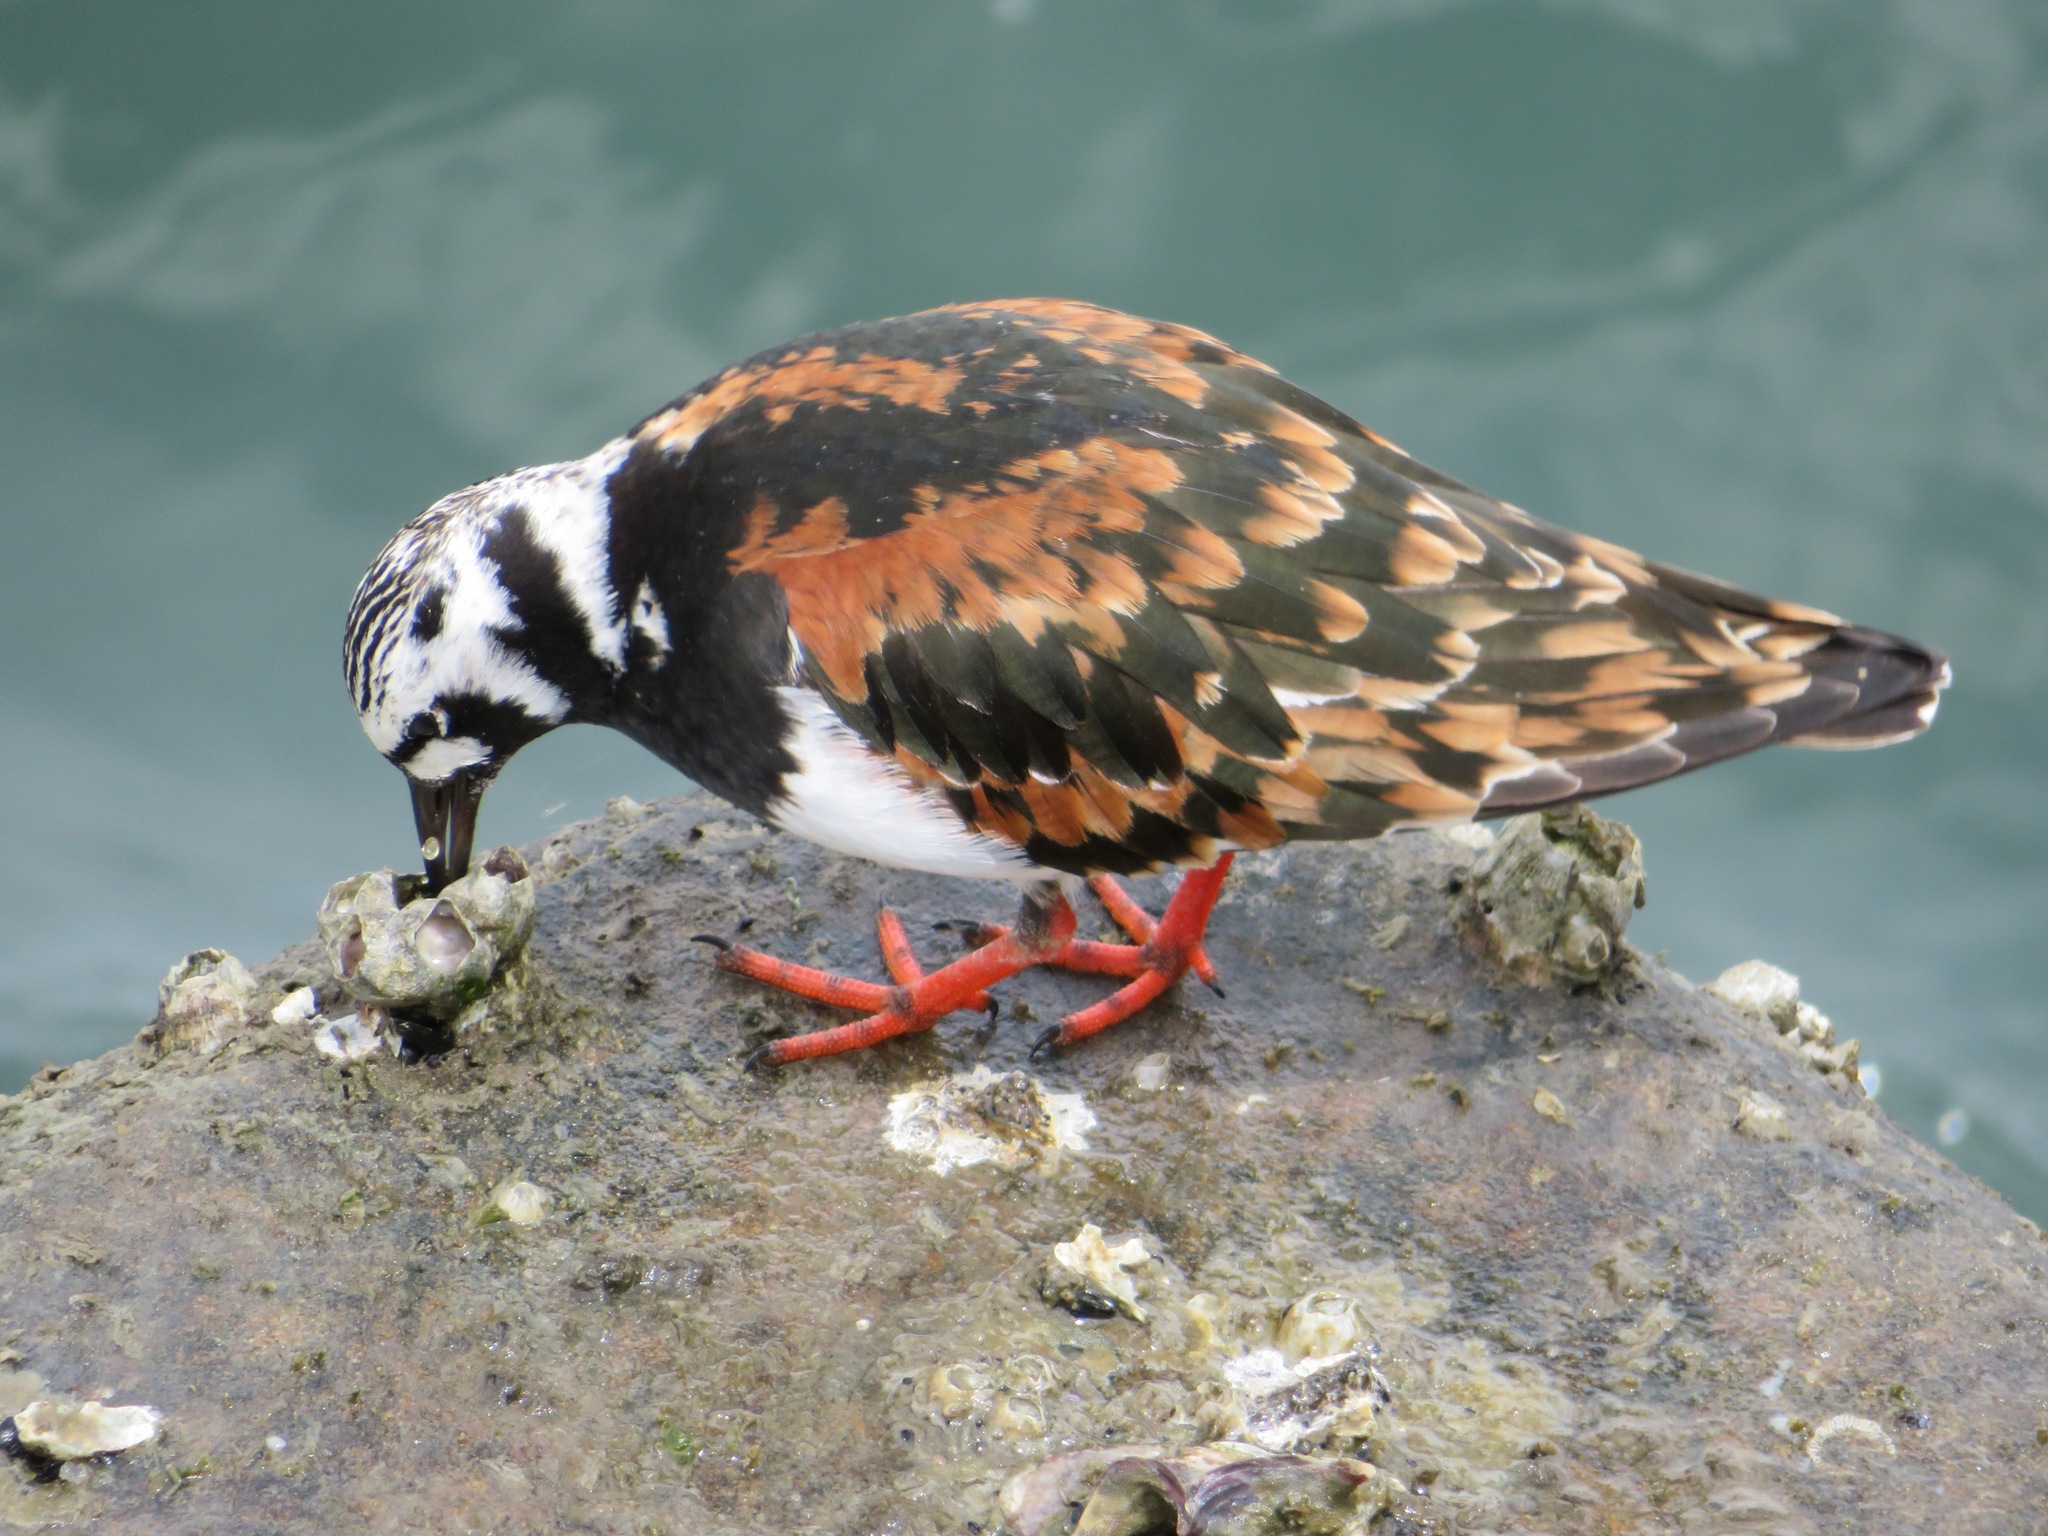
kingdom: Animalia
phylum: Chordata
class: Aves
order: Charadriiformes
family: Scolopacidae
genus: Arenaria
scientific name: Arenaria interpres
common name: Ruddy turnstone
